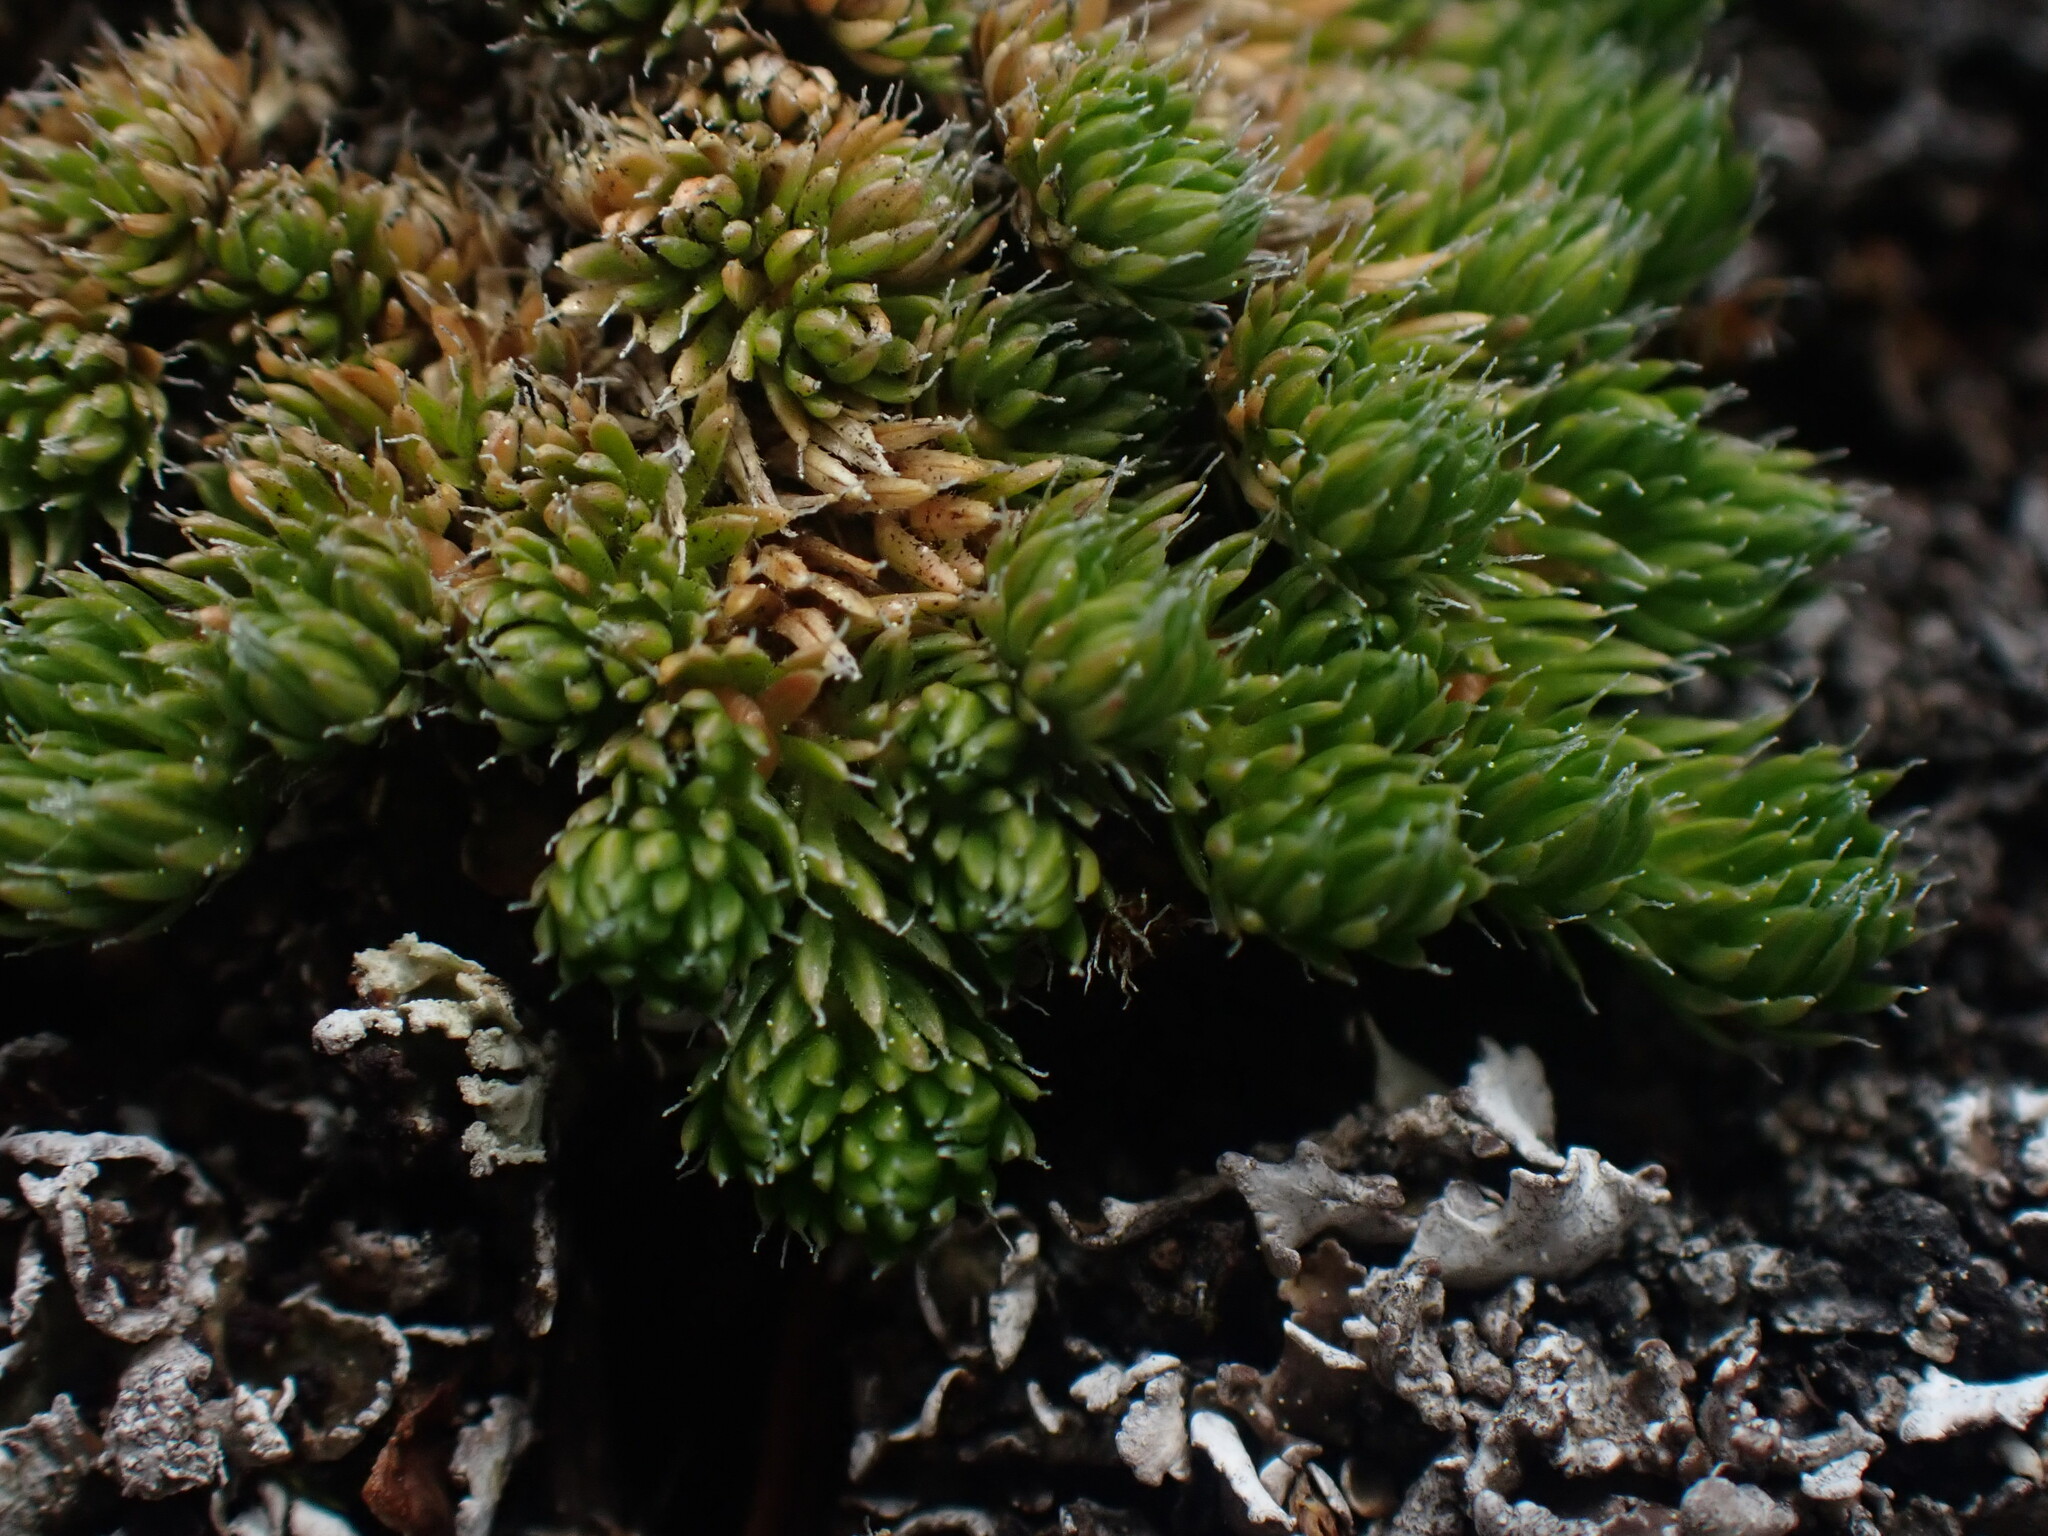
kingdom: Plantae
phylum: Tracheophyta
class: Lycopodiopsida
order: Selaginellales
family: Selaginellaceae
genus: Selaginella
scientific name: Selaginella densa
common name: Mountain spike-moss
